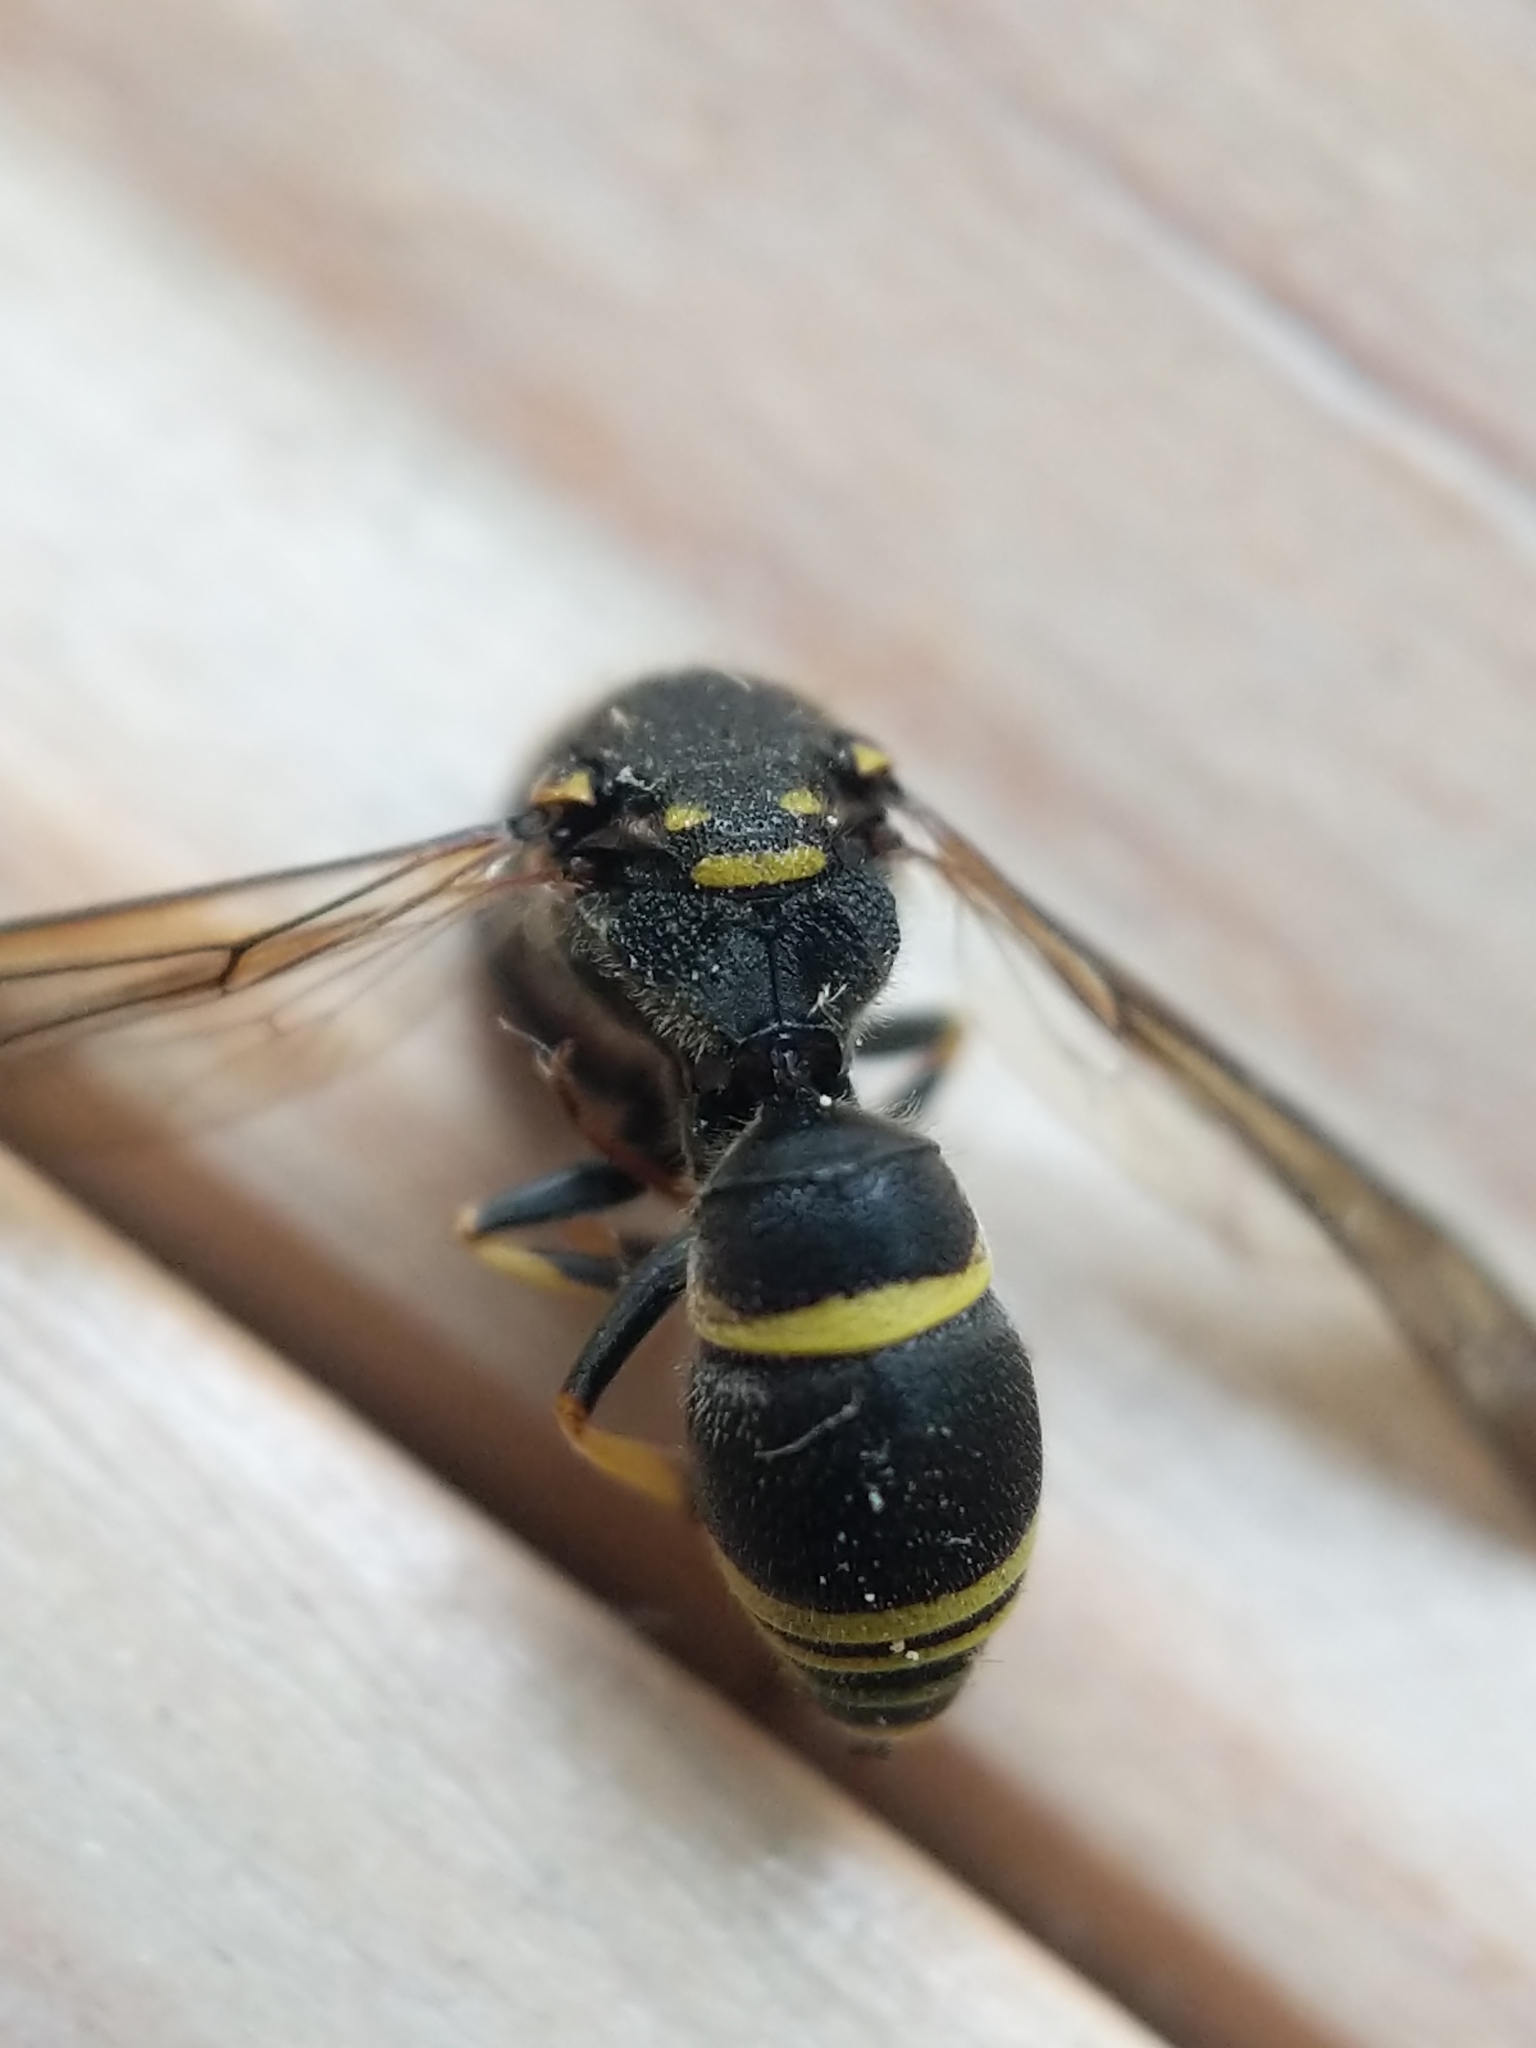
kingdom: Animalia
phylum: Arthropoda
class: Insecta
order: Hymenoptera
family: Vespidae
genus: Ancistrocerus
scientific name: Ancistrocerus adiabatus
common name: Bramble mason wasp
